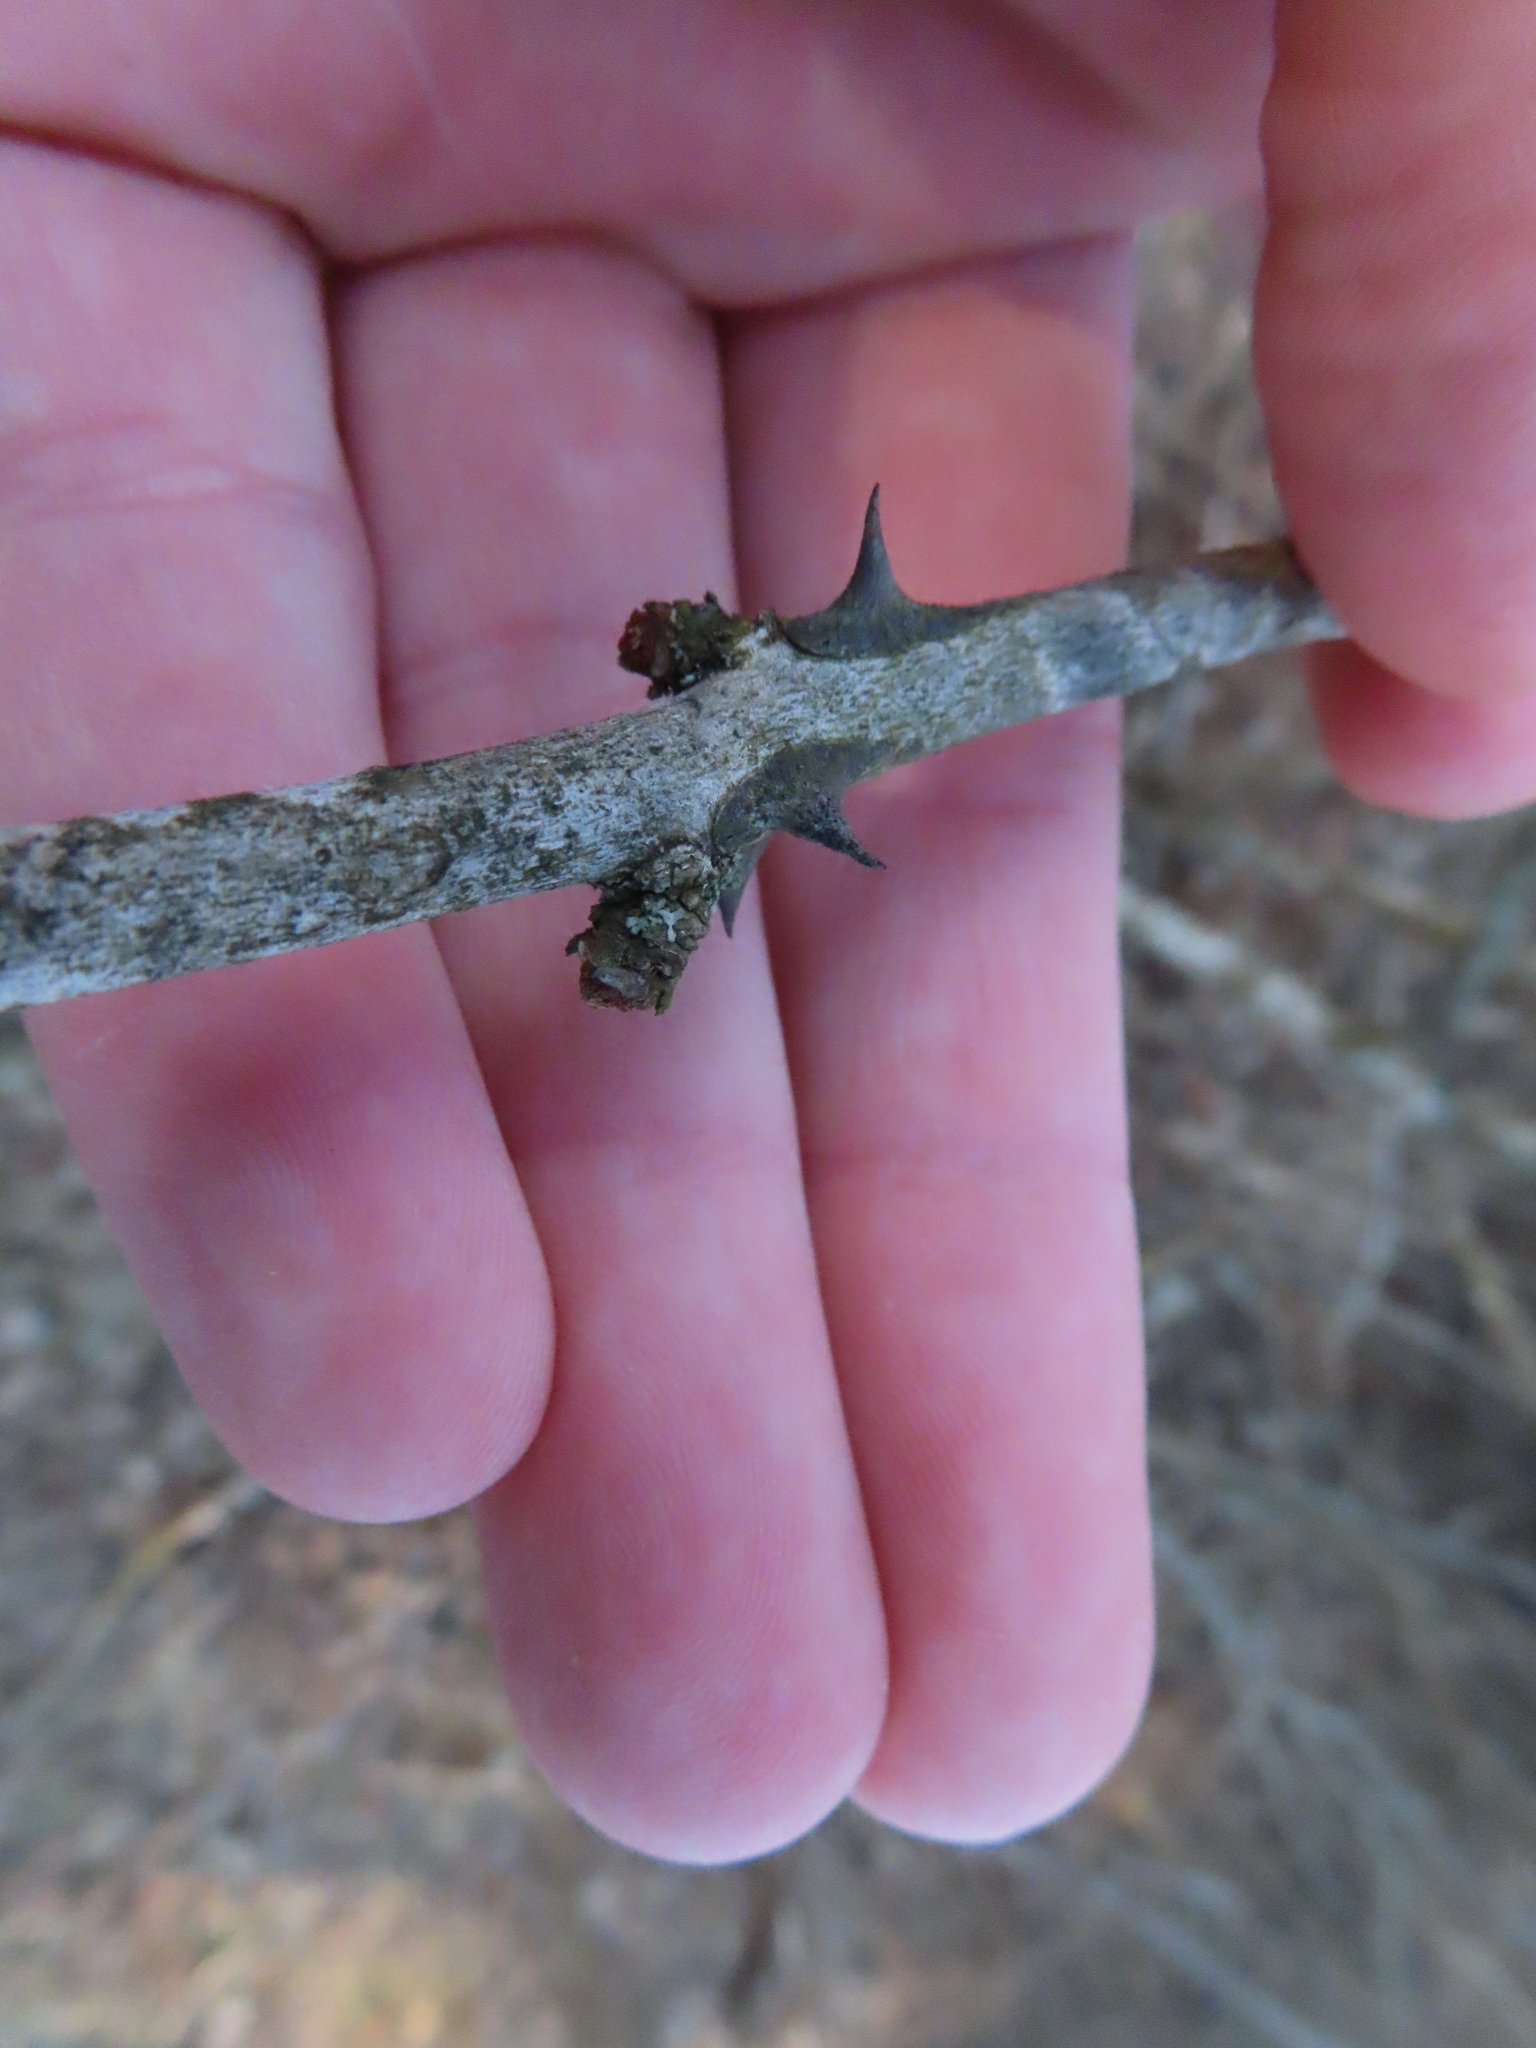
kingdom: Plantae
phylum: Tracheophyta
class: Magnoliopsida
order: Sapindales
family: Rutaceae
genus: Zanthoxylum
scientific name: Zanthoxylum americanum
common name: Northern prickly-ash
